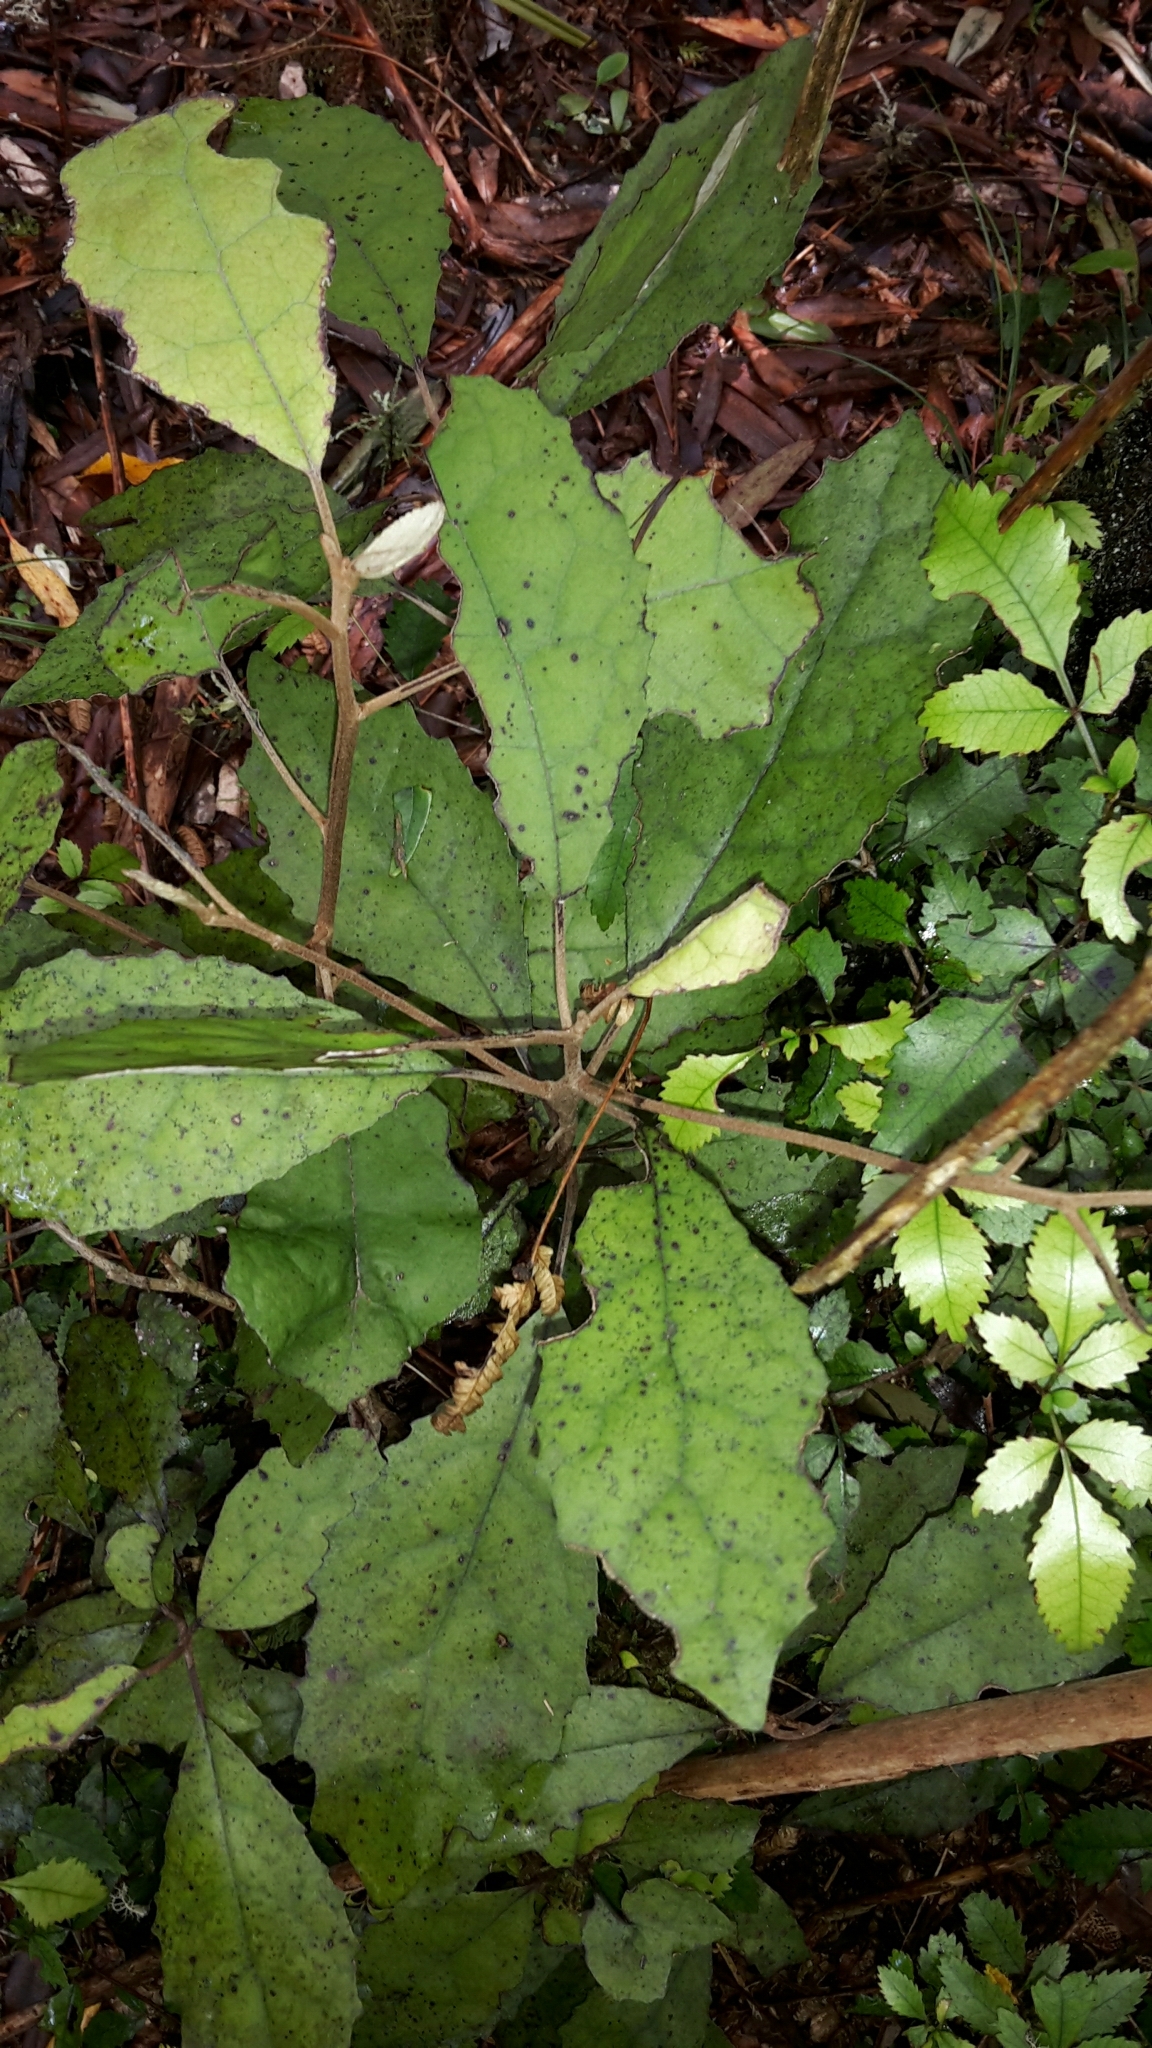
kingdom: Plantae
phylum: Tracheophyta
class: Magnoliopsida
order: Asterales
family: Asteraceae
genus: Olearia
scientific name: Olearia rani
